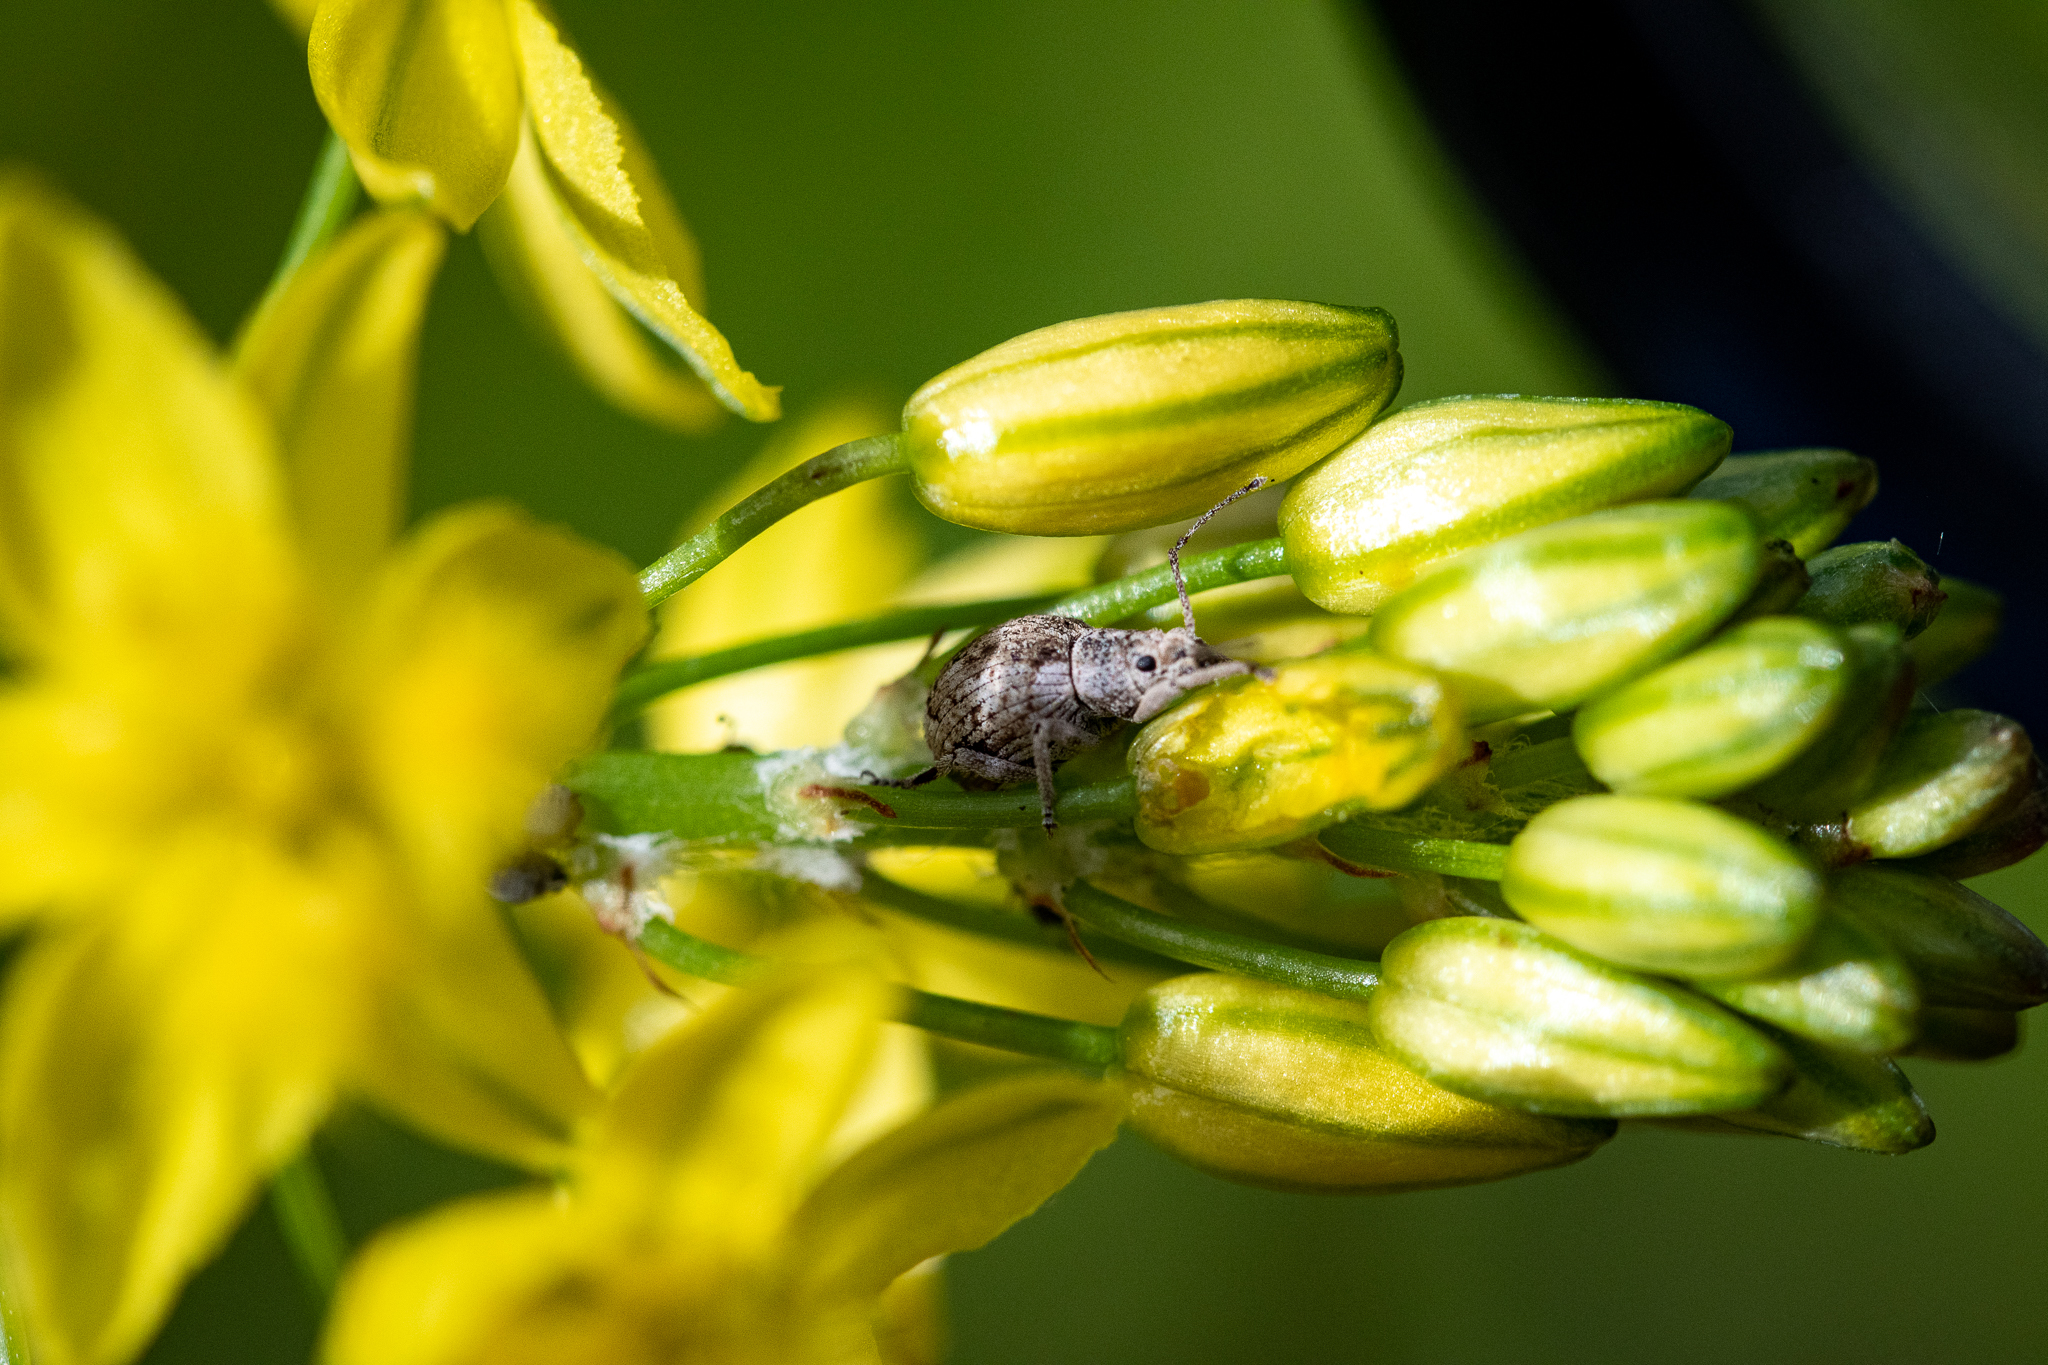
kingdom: Animalia
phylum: Arthropoda
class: Insecta
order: Coleoptera
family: Curculionidae
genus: Ellimenistes
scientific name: Ellimenistes laesicollis
